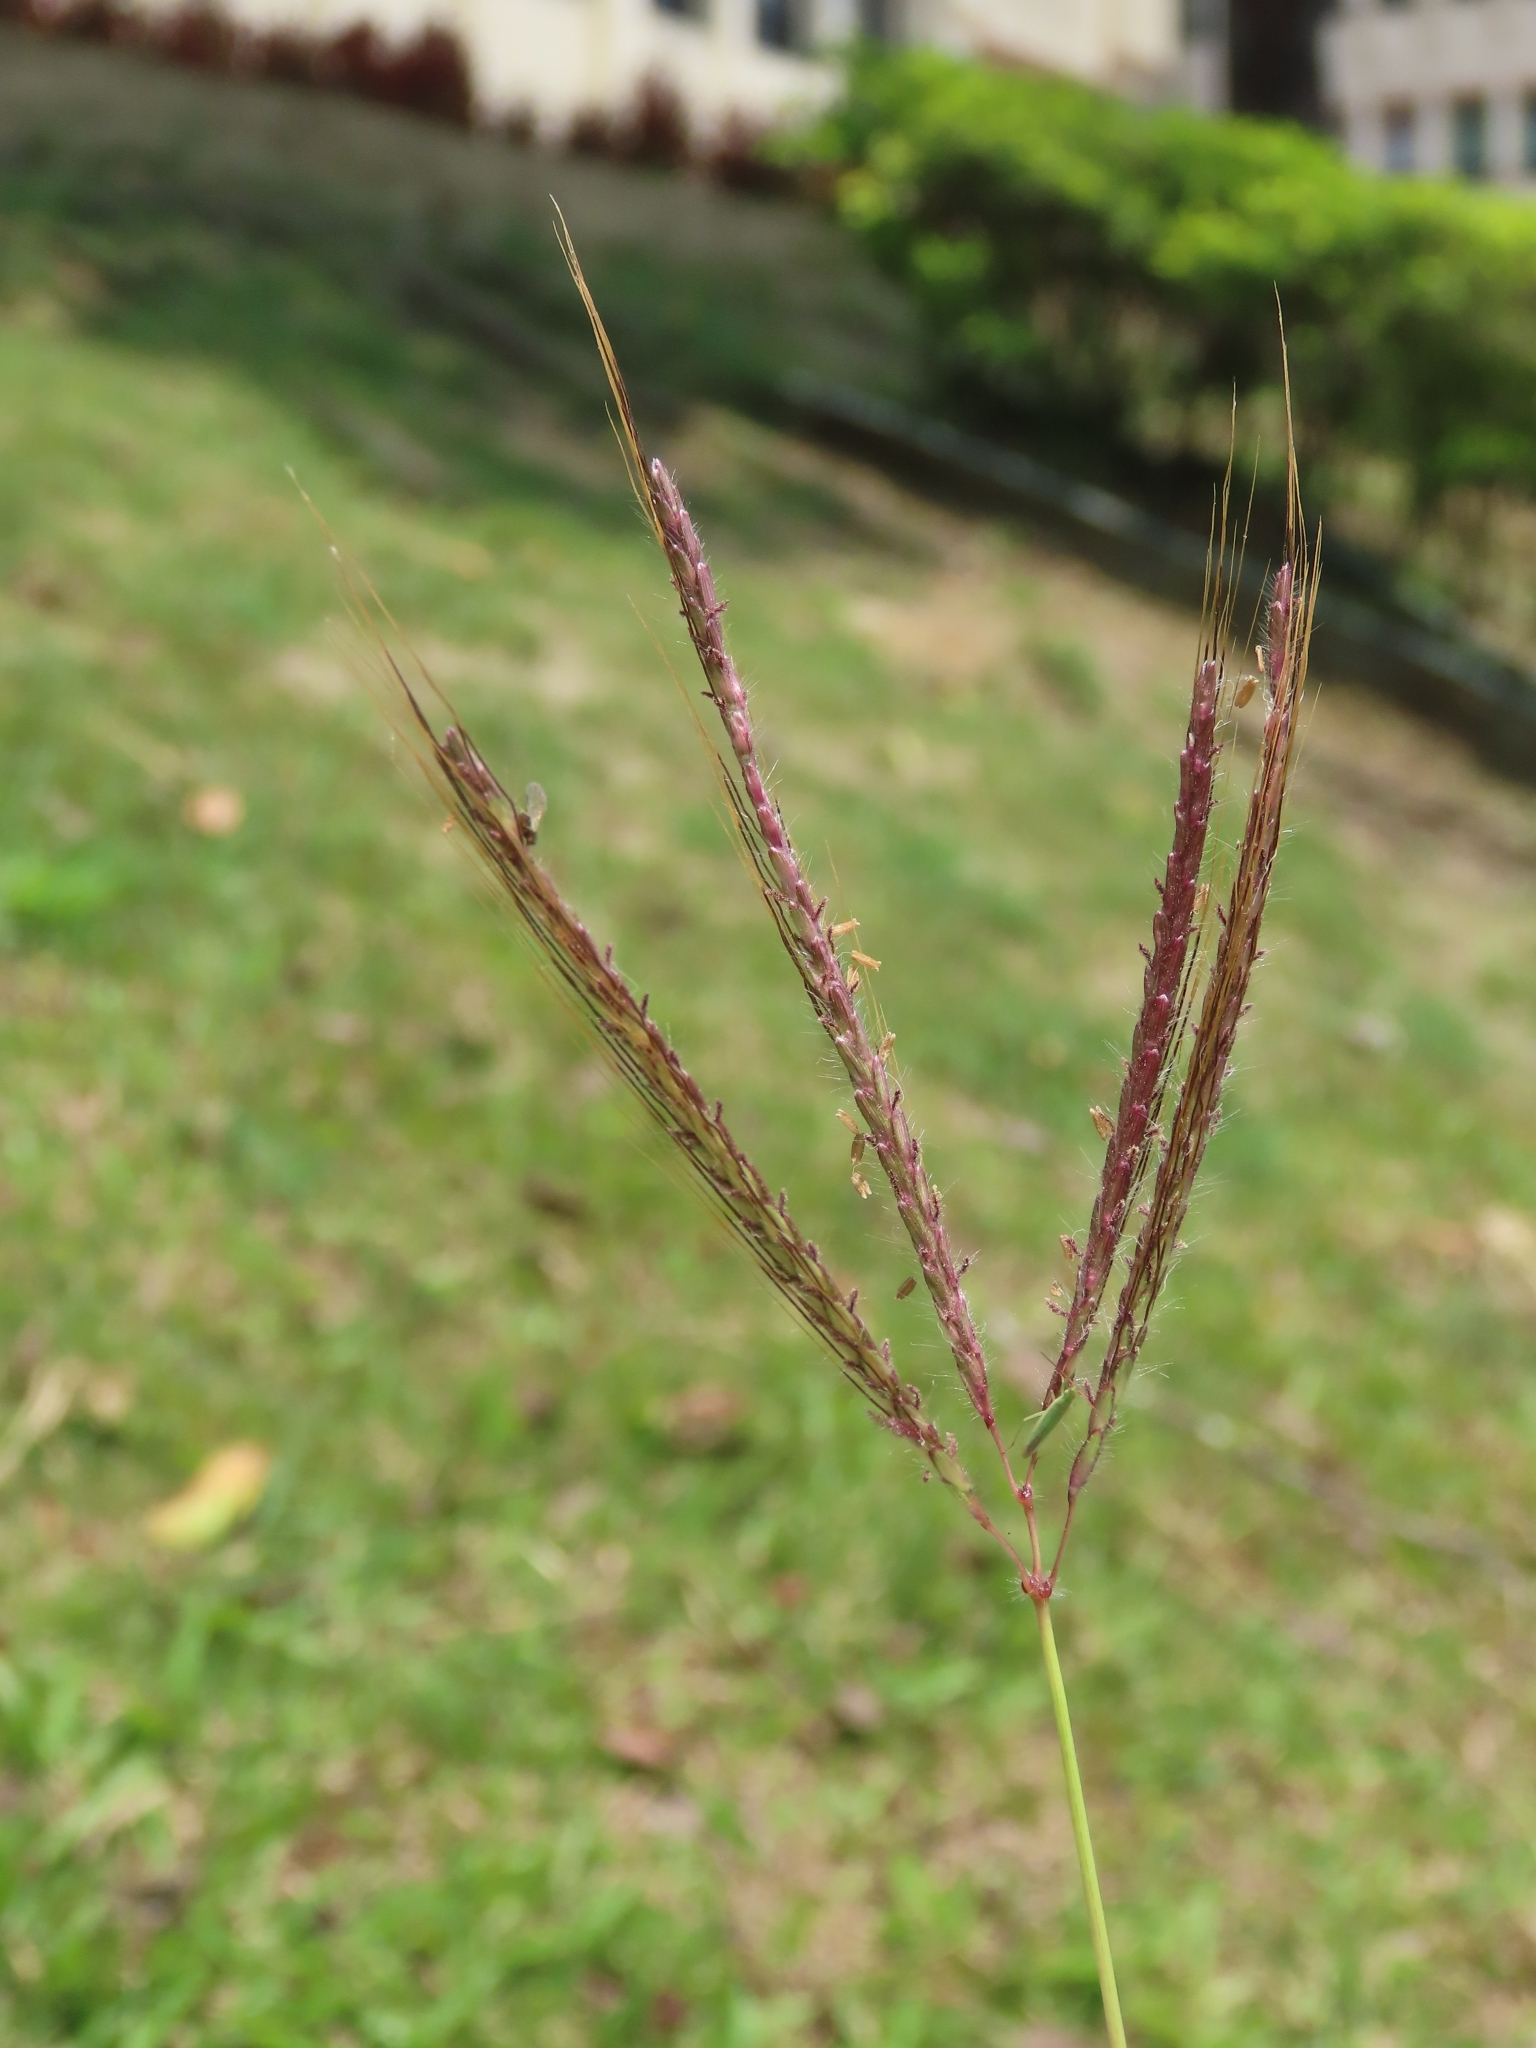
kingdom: Plantae
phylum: Tracheophyta
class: Liliopsida
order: Poales
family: Poaceae
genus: Dichanthium
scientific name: Dichanthium annulatum
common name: Kleberg's bluestem
